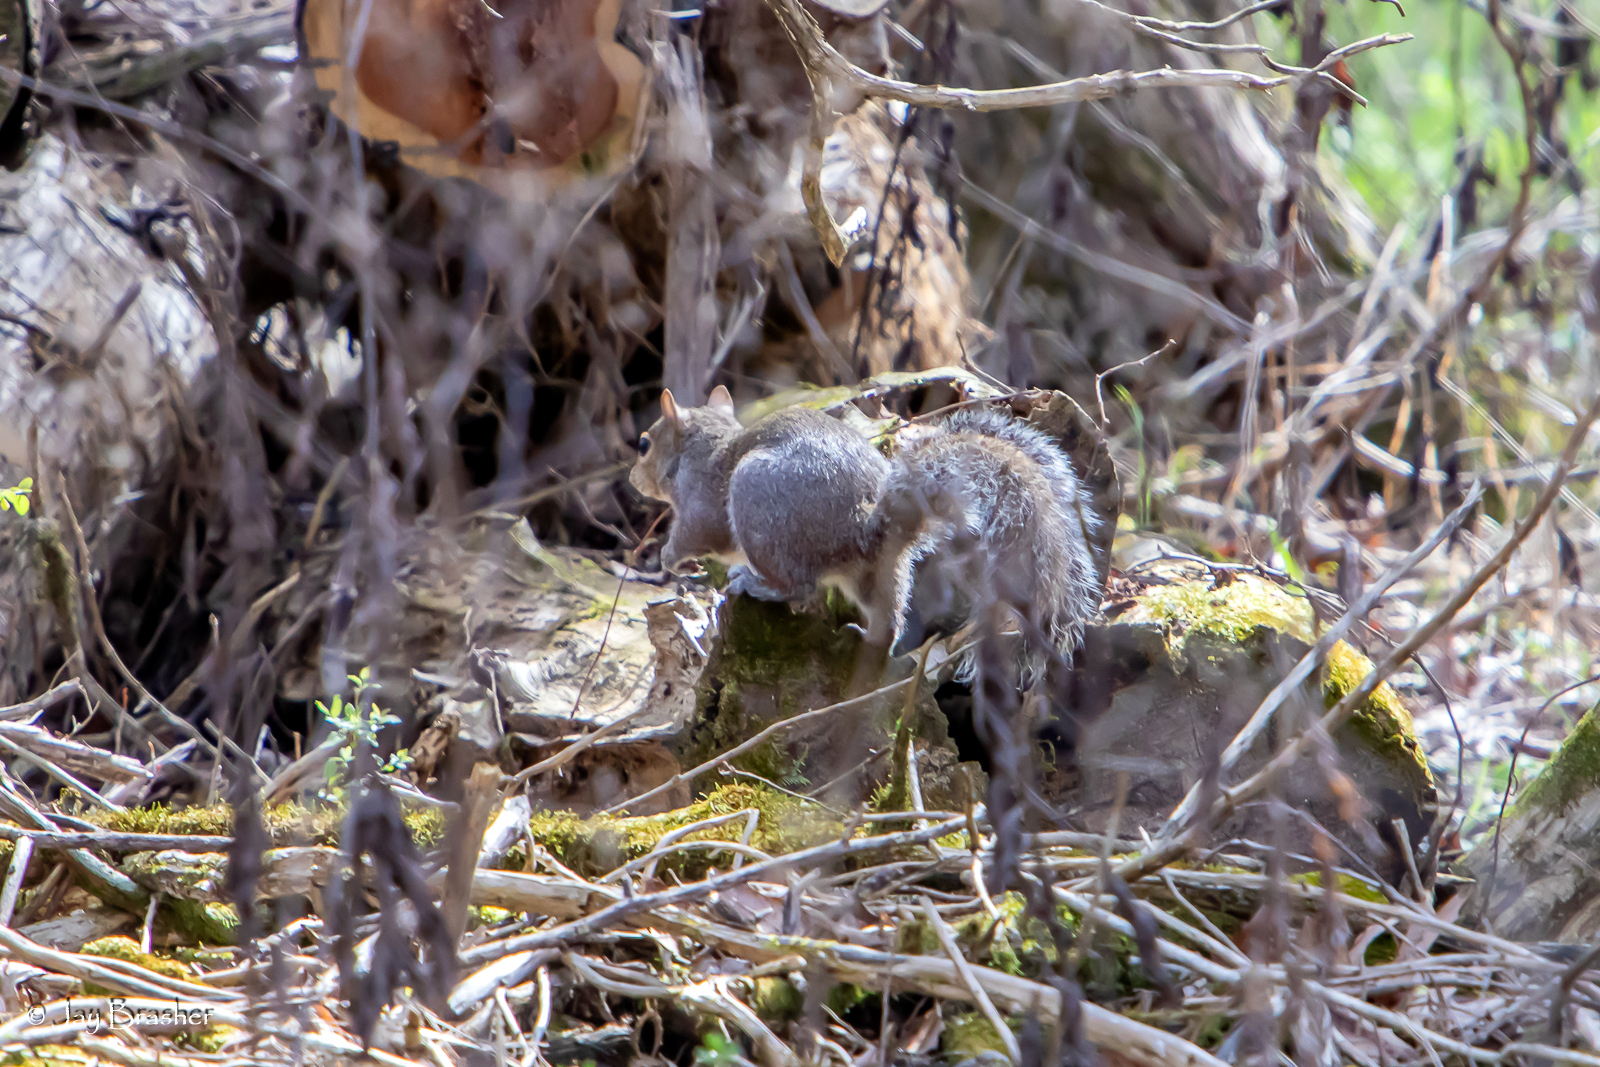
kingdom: Animalia
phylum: Chordata
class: Mammalia
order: Rodentia
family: Sciuridae
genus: Sciurus
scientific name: Sciurus carolinensis
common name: Eastern gray squirrel
